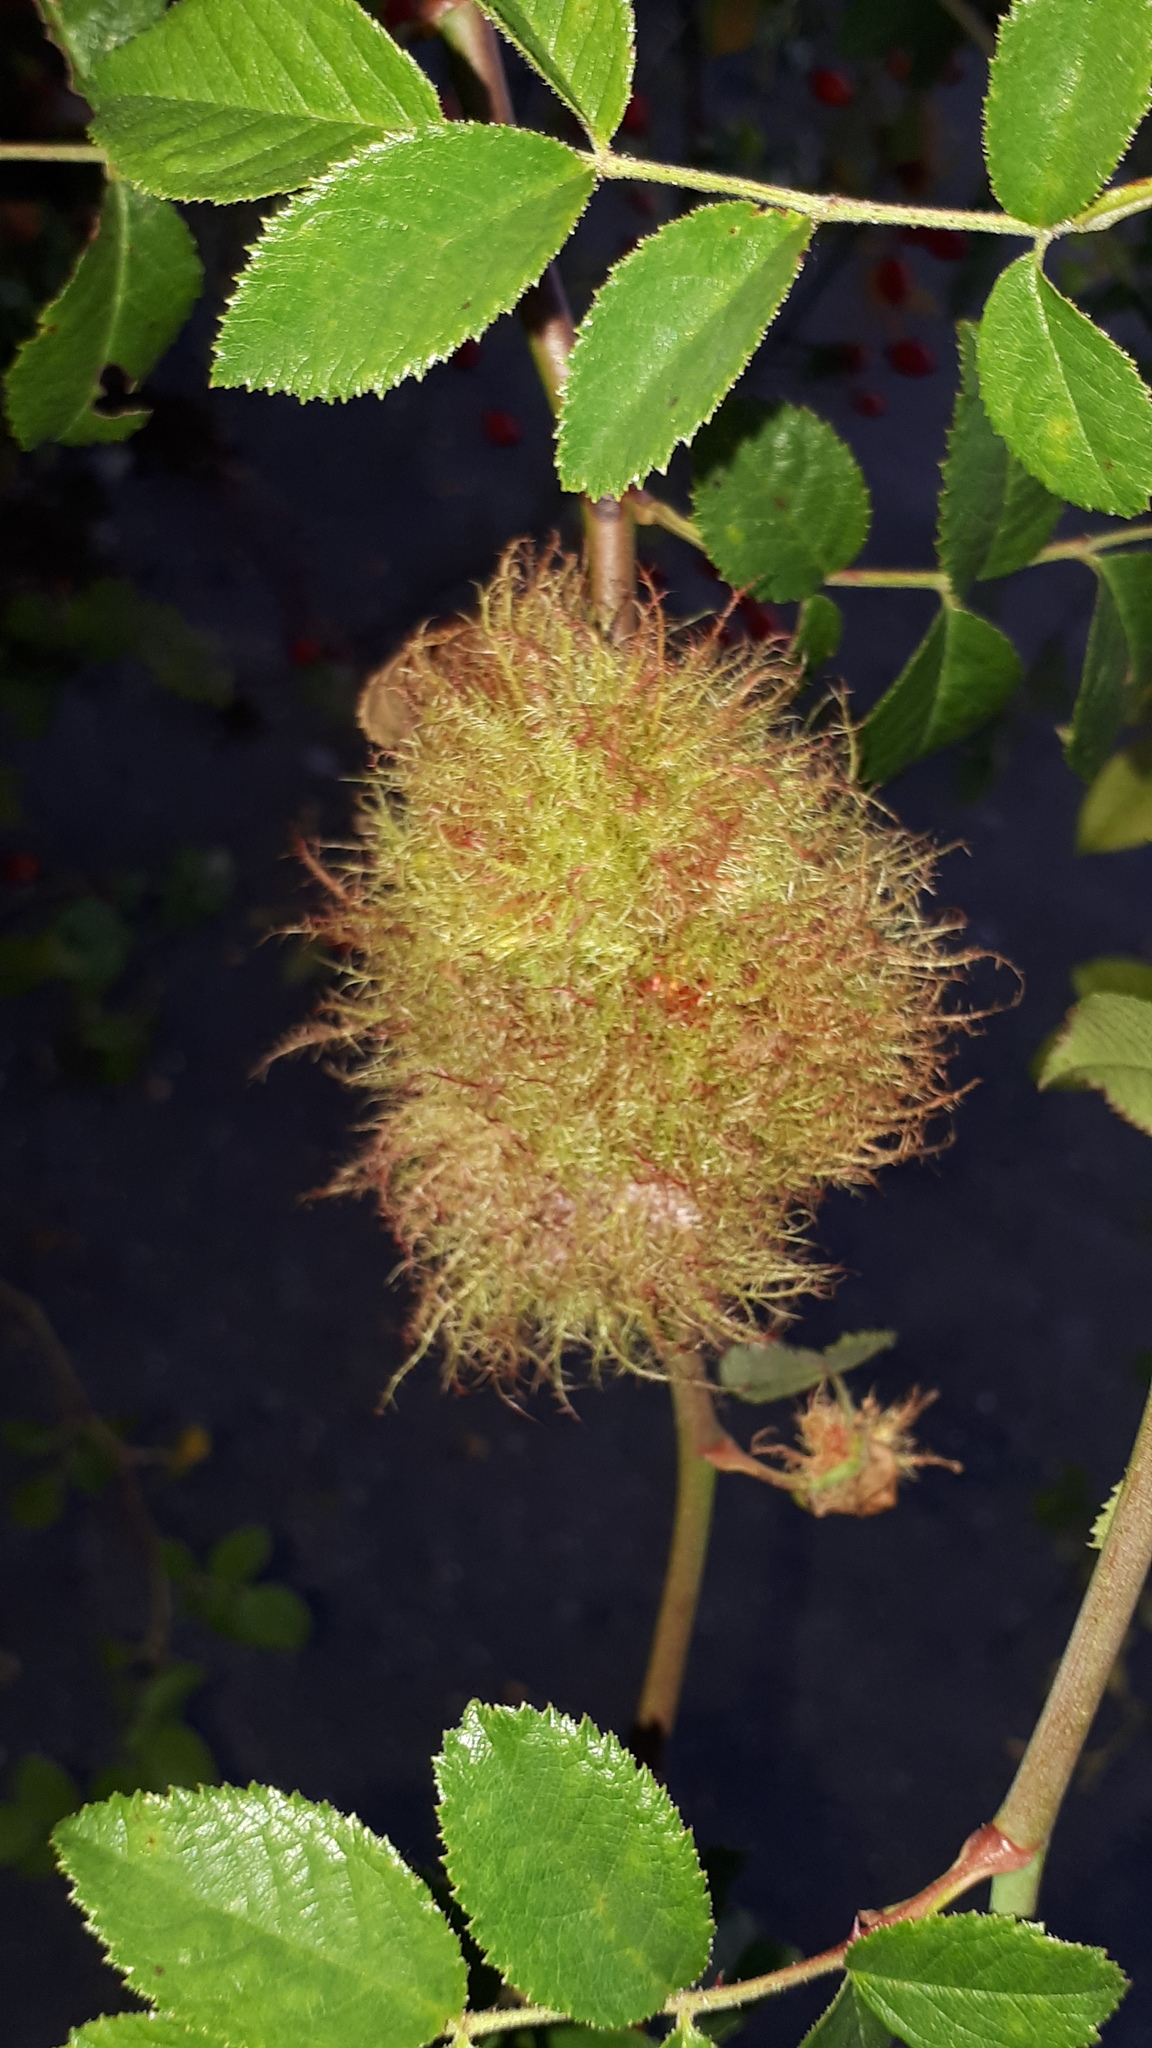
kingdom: Animalia
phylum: Arthropoda
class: Insecta
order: Hymenoptera
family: Cynipidae
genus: Diplolepis
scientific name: Diplolepis rosae
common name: Bedeguar gall
